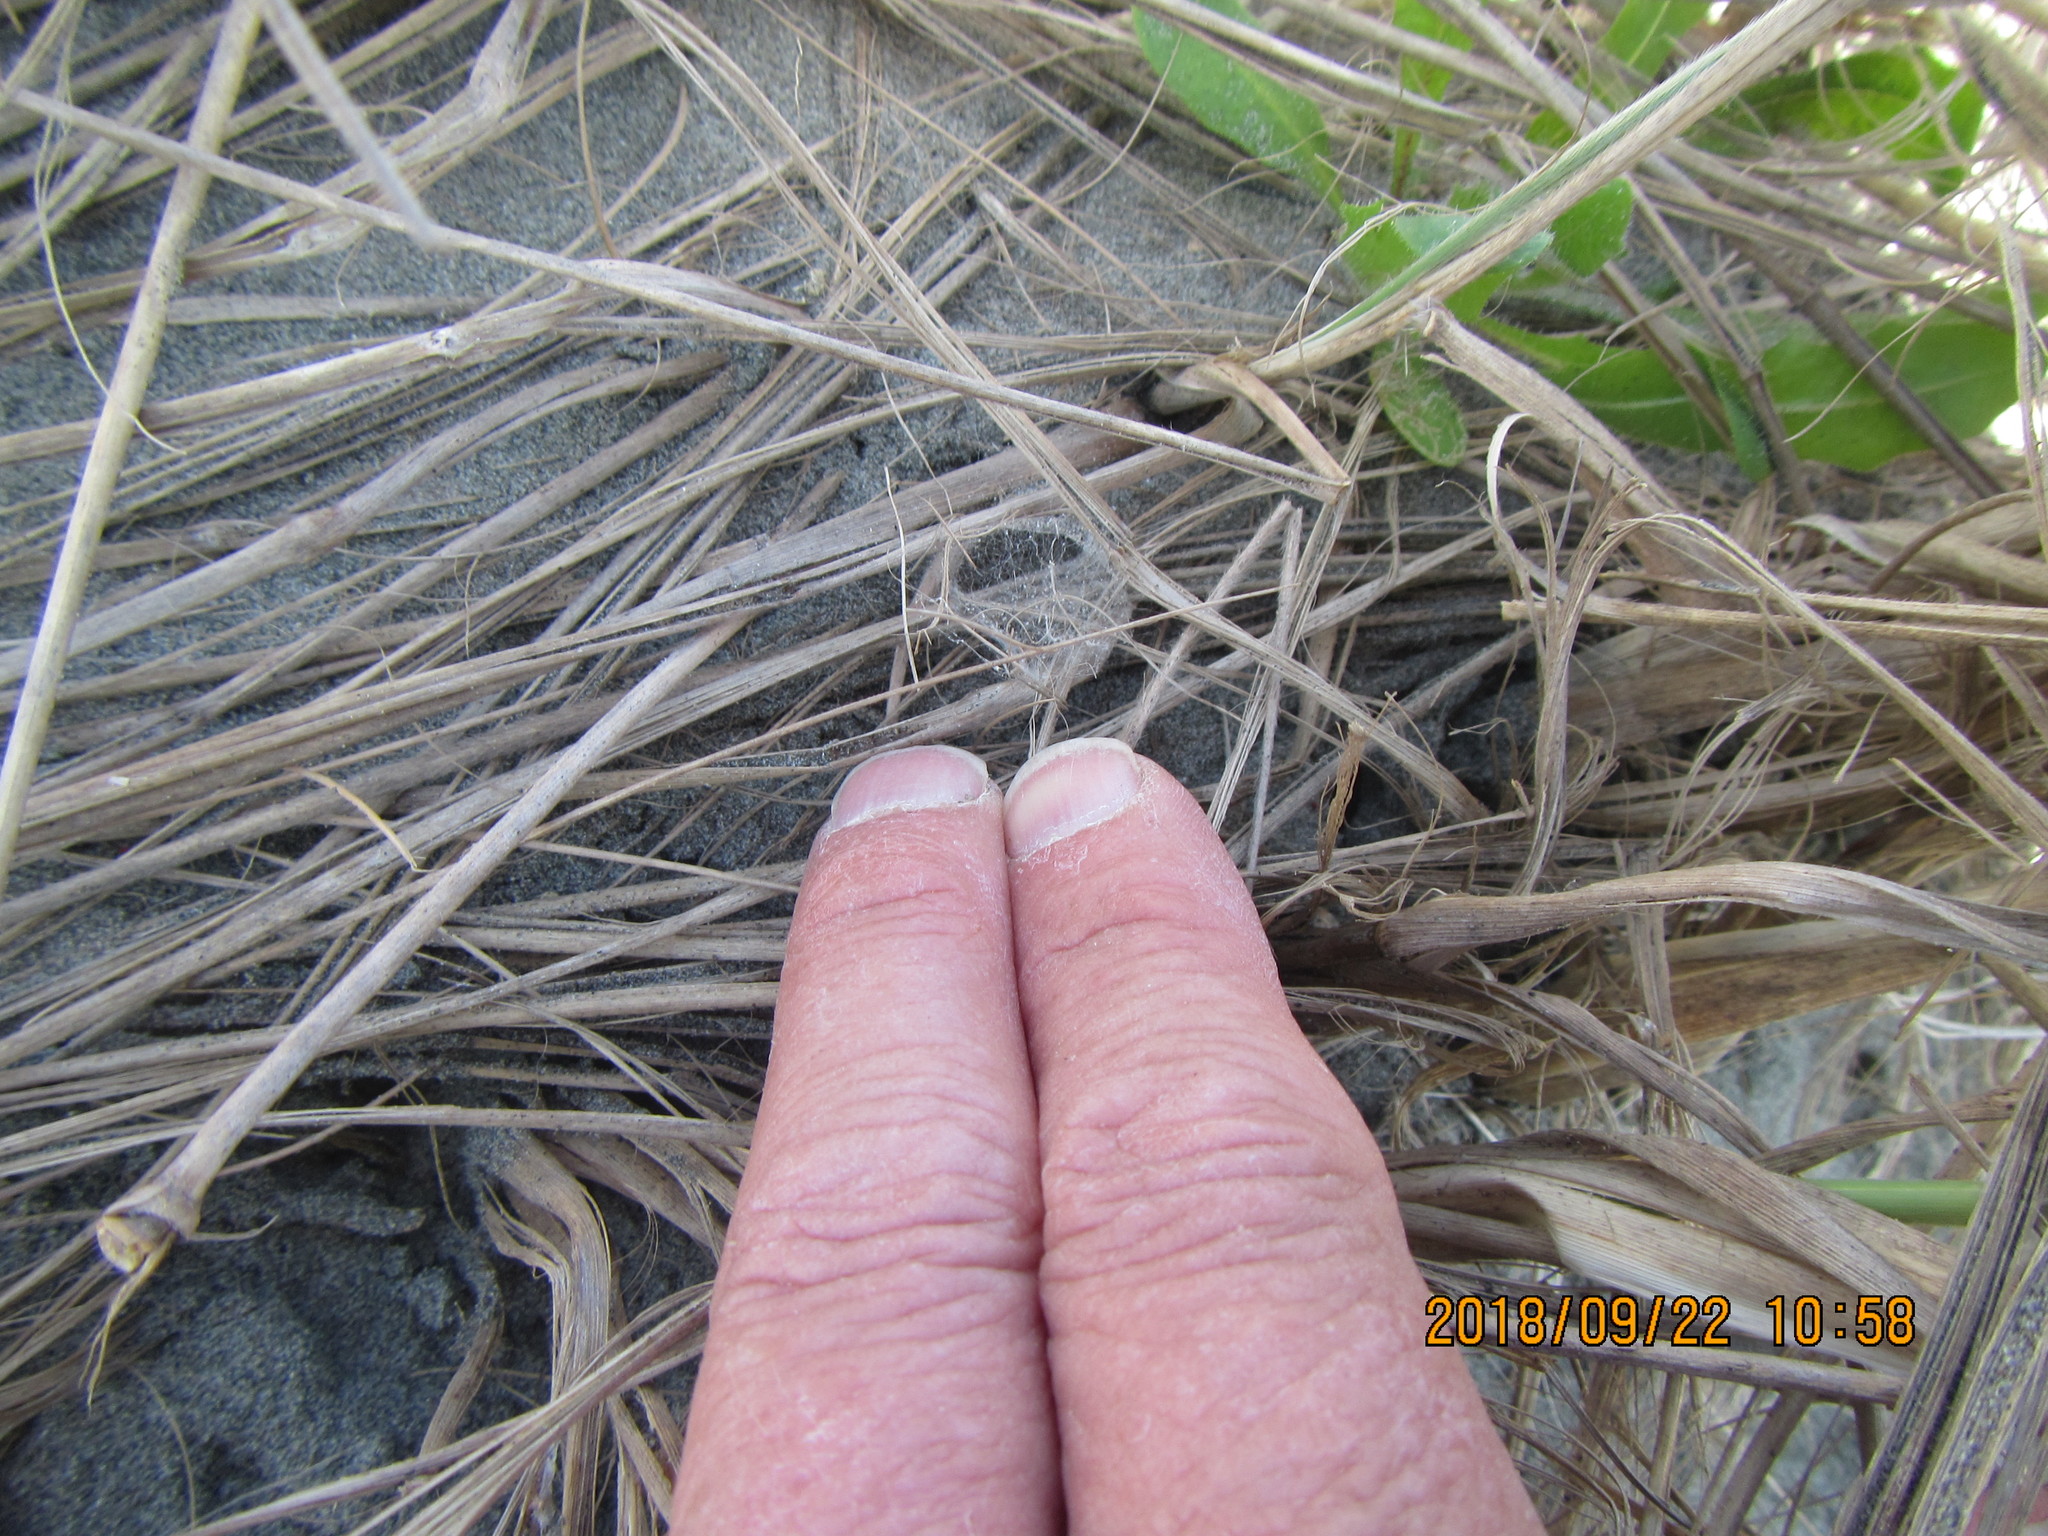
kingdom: Animalia
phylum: Arthropoda
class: Arachnida
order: Araneae
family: Theridiidae
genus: Latrodectus
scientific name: Latrodectus katipo
